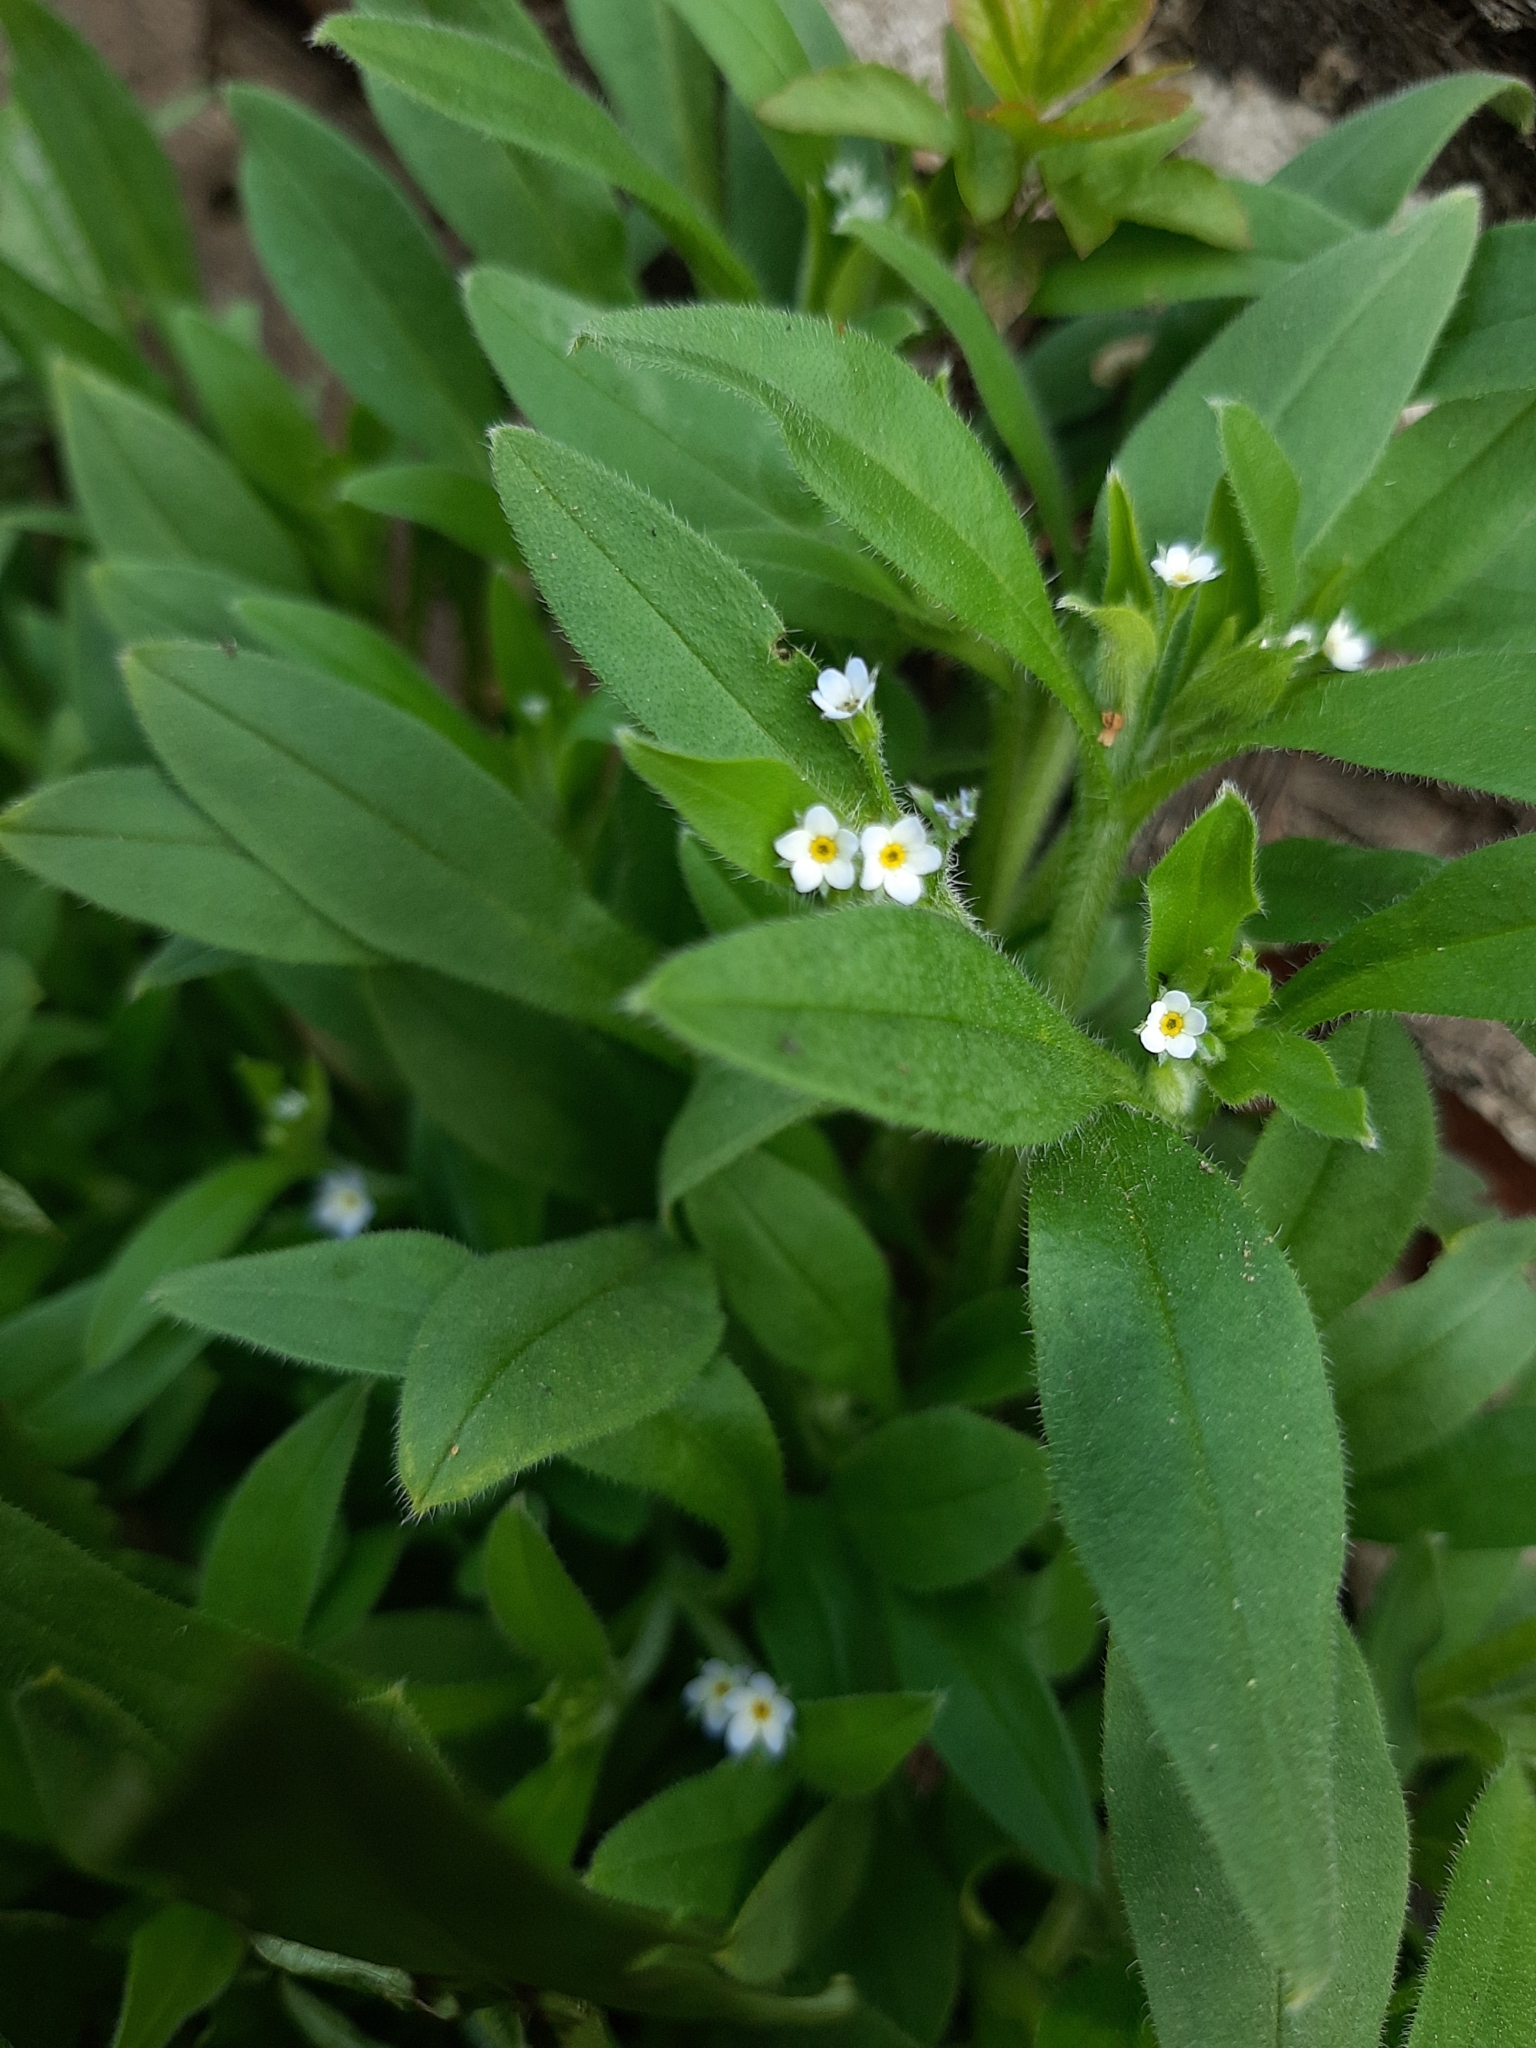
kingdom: Plantae
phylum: Tracheophyta
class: Magnoliopsida
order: Boraginales
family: Boraginaceae
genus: Myosotis
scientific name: Myosotis sparsiflora
